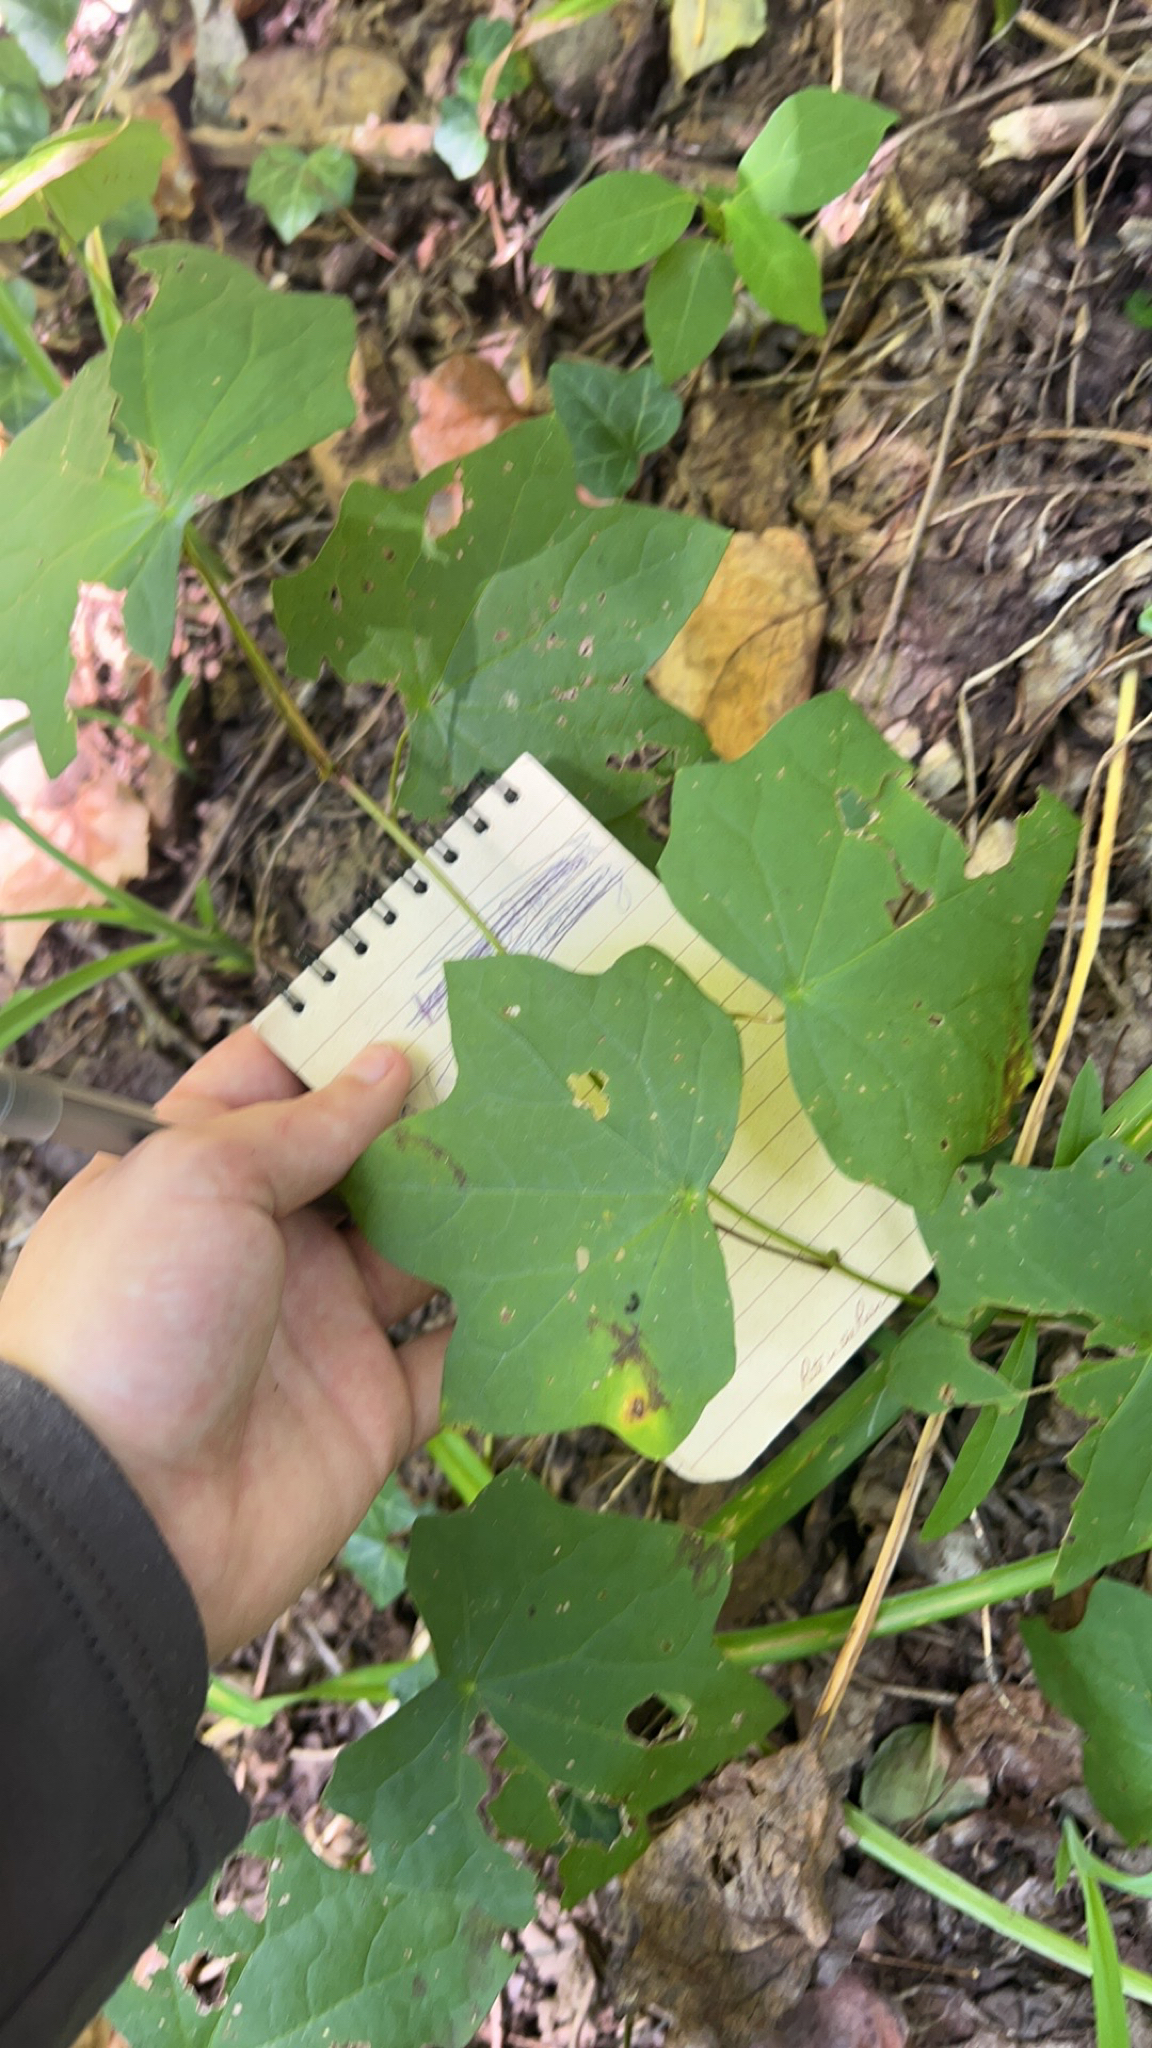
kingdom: Plantae
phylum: Tracheophyta
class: Magnoliopsida
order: Ranunculales
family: Menispermaceae
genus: Menispermum
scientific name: Menispermum canadense
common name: Moonseed
